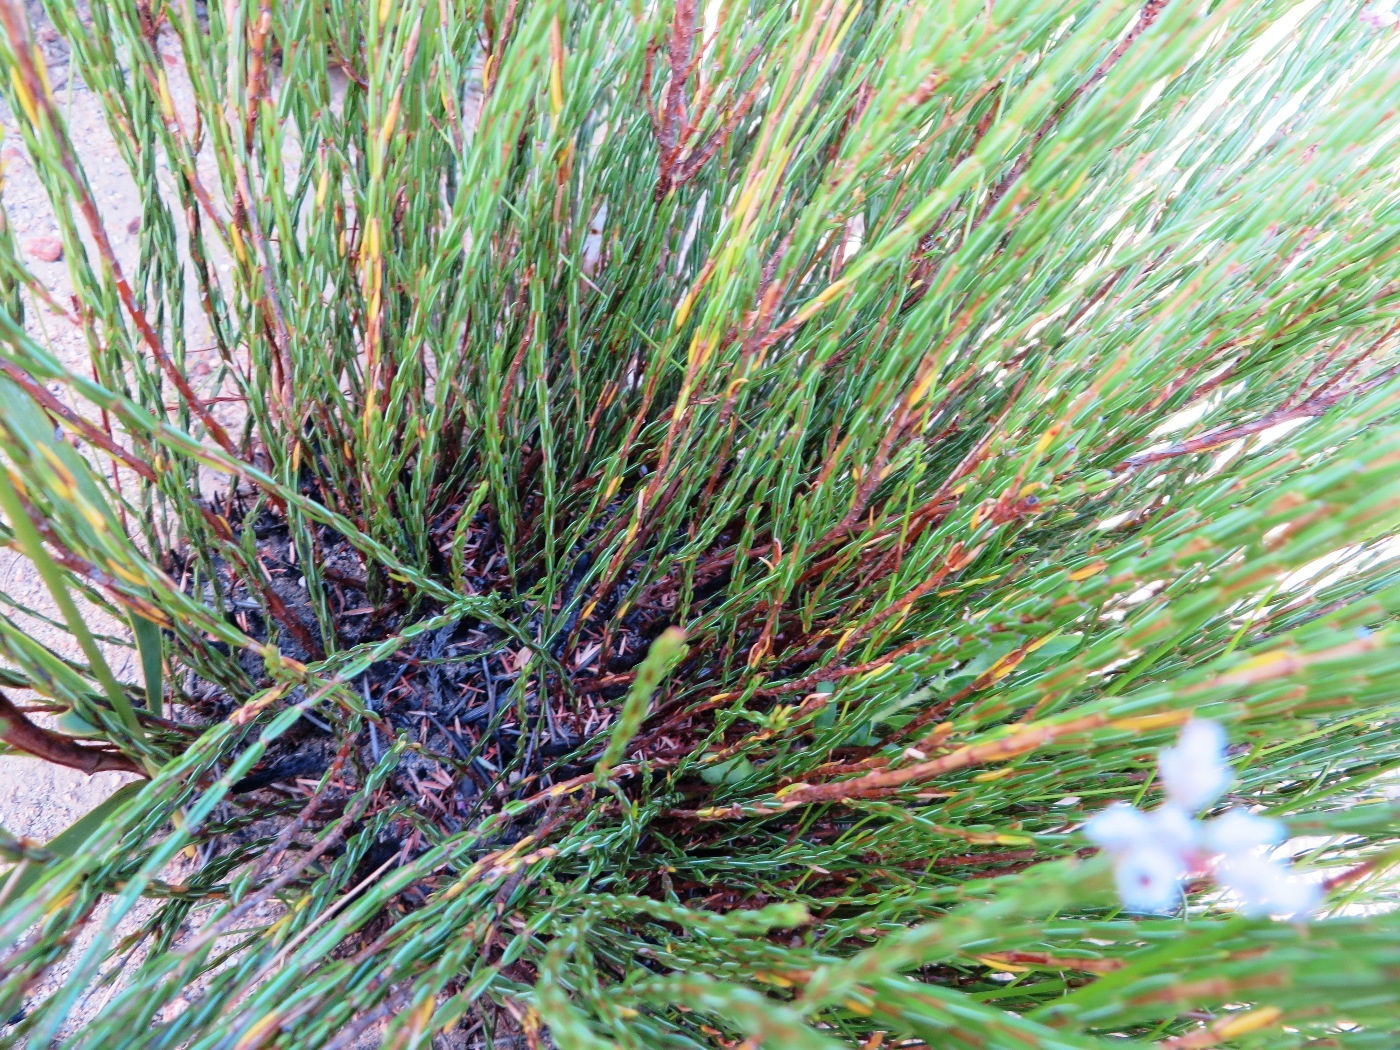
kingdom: Plantae
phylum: Tracheophyta
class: Magnoliopsida
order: Ericales
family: Ericaceae
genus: Erica
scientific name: Erica articularis
